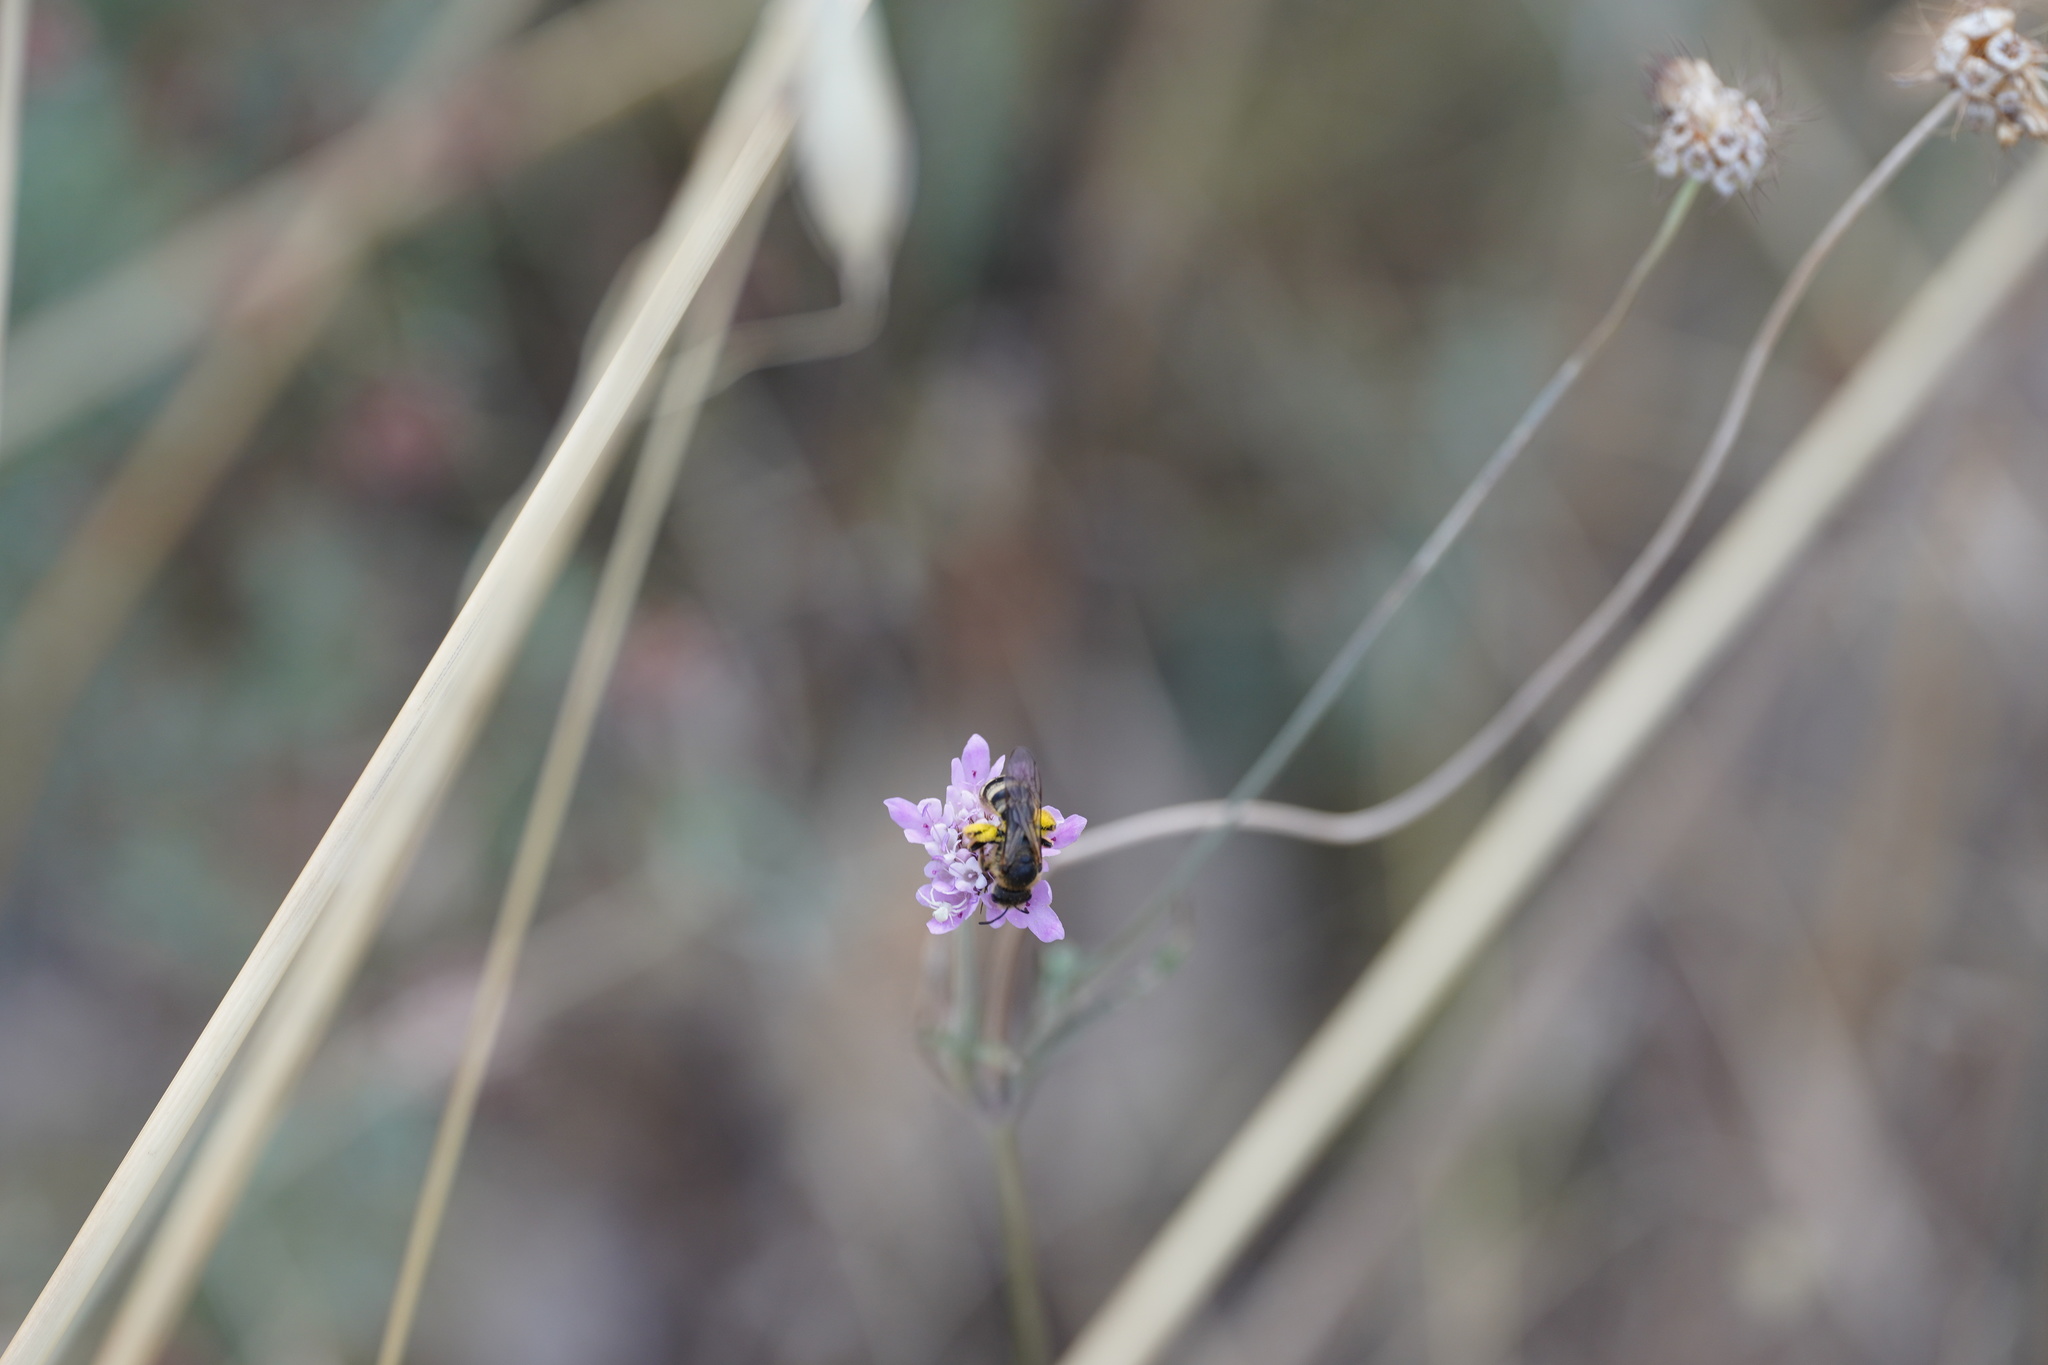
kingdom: Animalia
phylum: Arthropoda
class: Insecta
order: Hymenoptera
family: Halictidae
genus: Halictus
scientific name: Halictus scabiosae
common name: Great banded furrow bee
